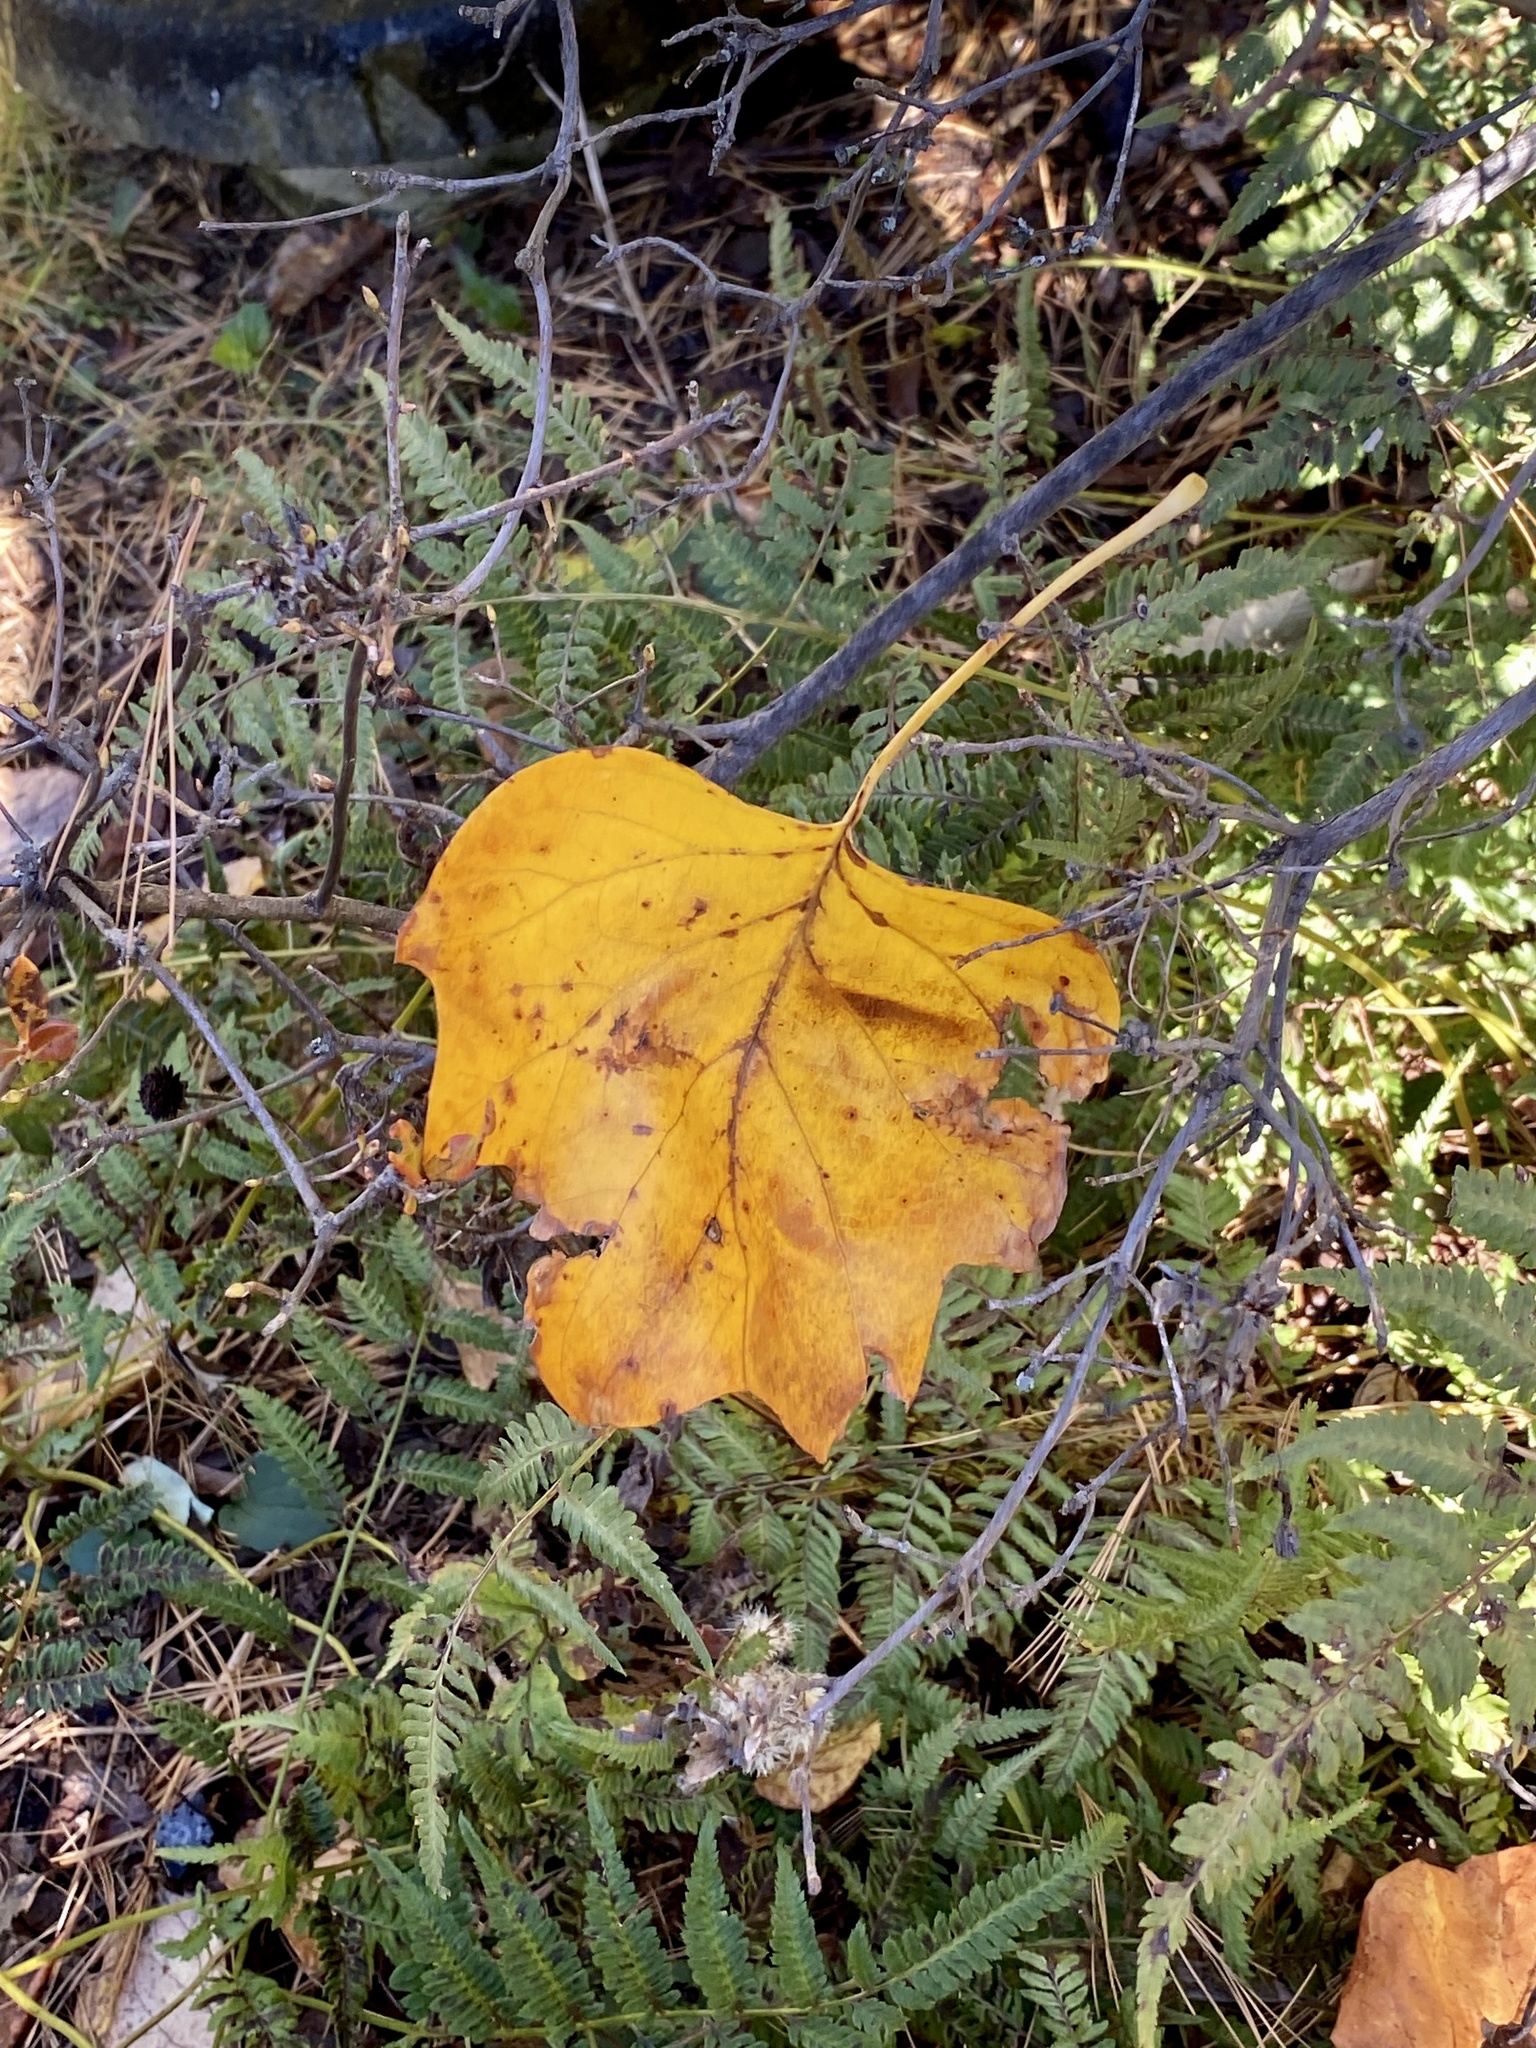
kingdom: Plantae
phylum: Tracheophyta
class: Magnoliopsida
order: Magnoliales
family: Magnoliaceae
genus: Liriodendron
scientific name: Liriodendron tulipifera
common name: Tulip tree
